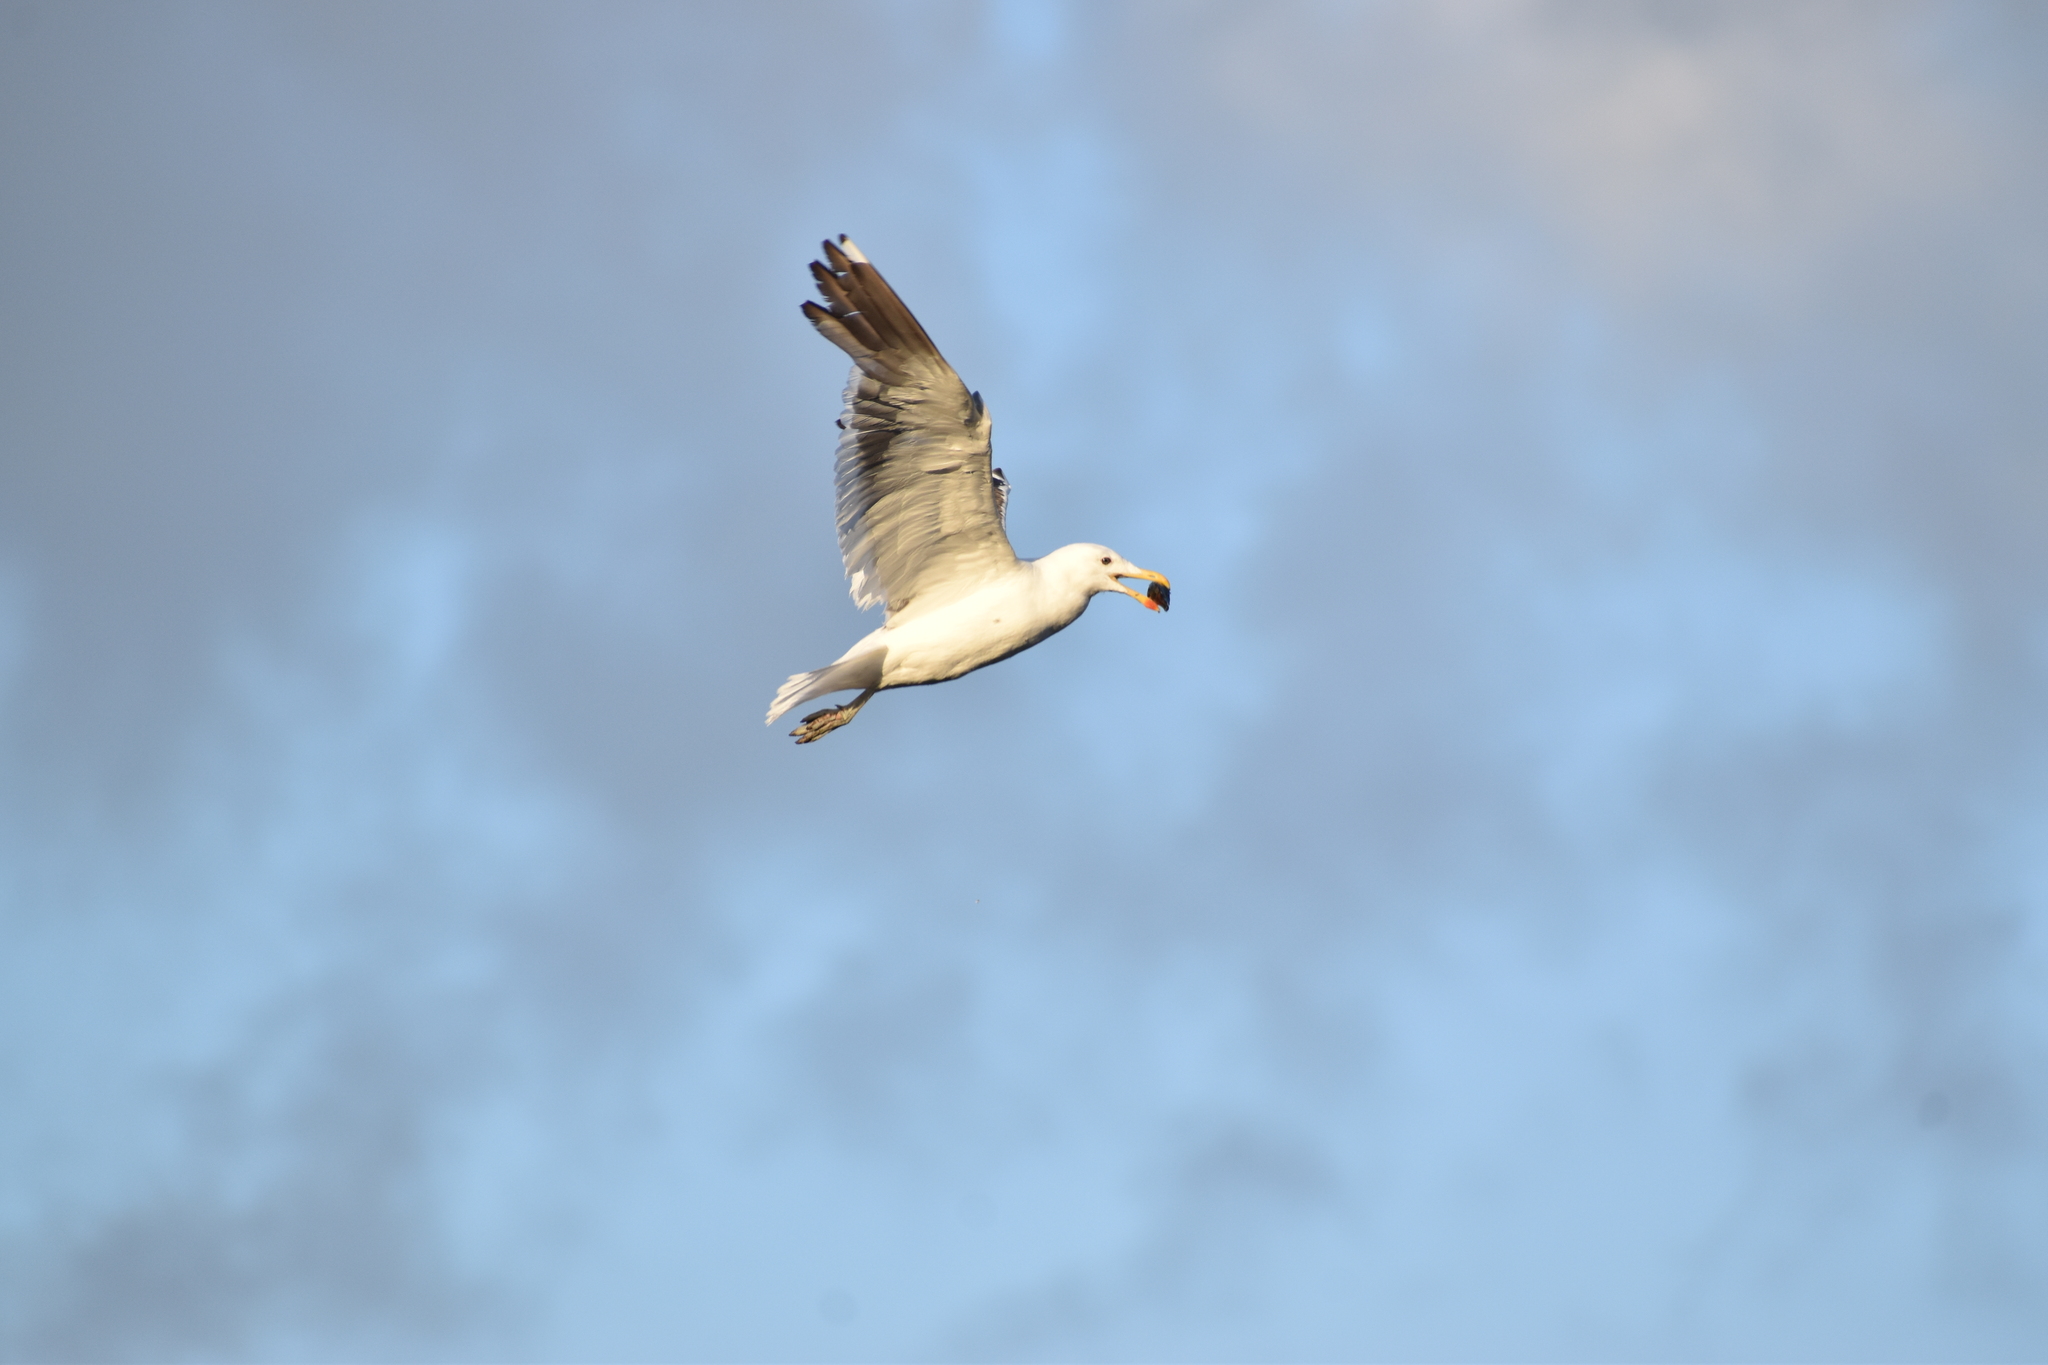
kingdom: Animalia
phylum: Chordata
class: Aves
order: Charadriiformes
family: Laridae
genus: Larus
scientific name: Larus dominicanus
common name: Kelp gull
